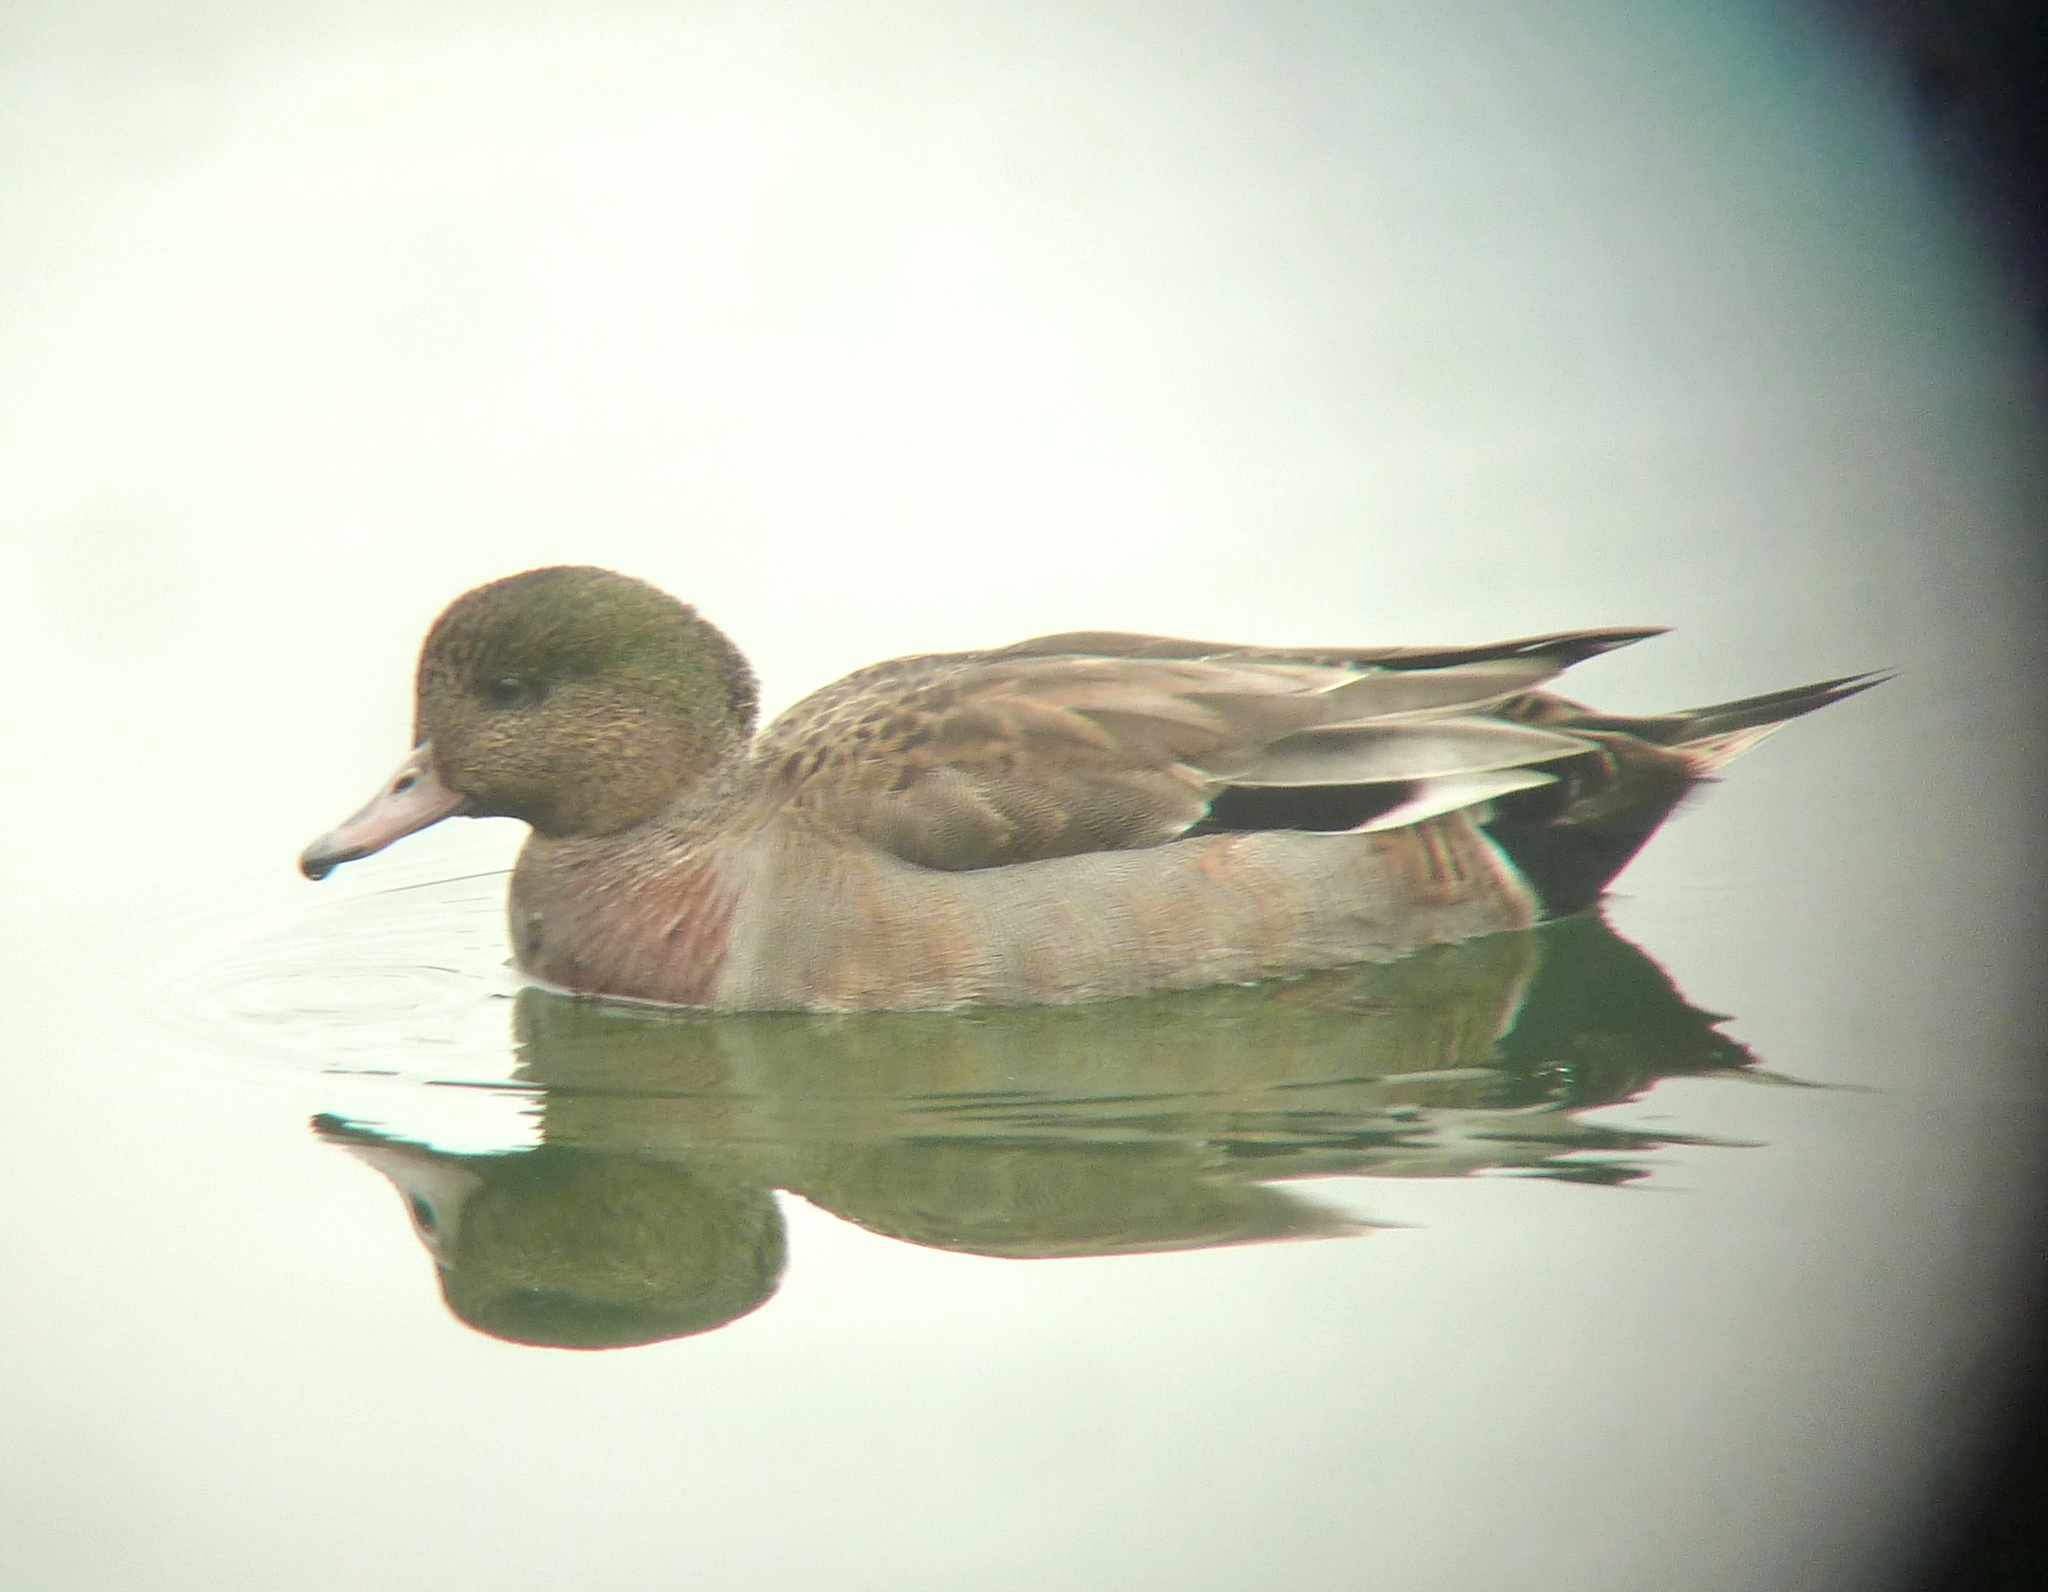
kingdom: Animalia
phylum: Chordata
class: Aves
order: Anseriformes
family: Anatidae
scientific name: Anatidae
